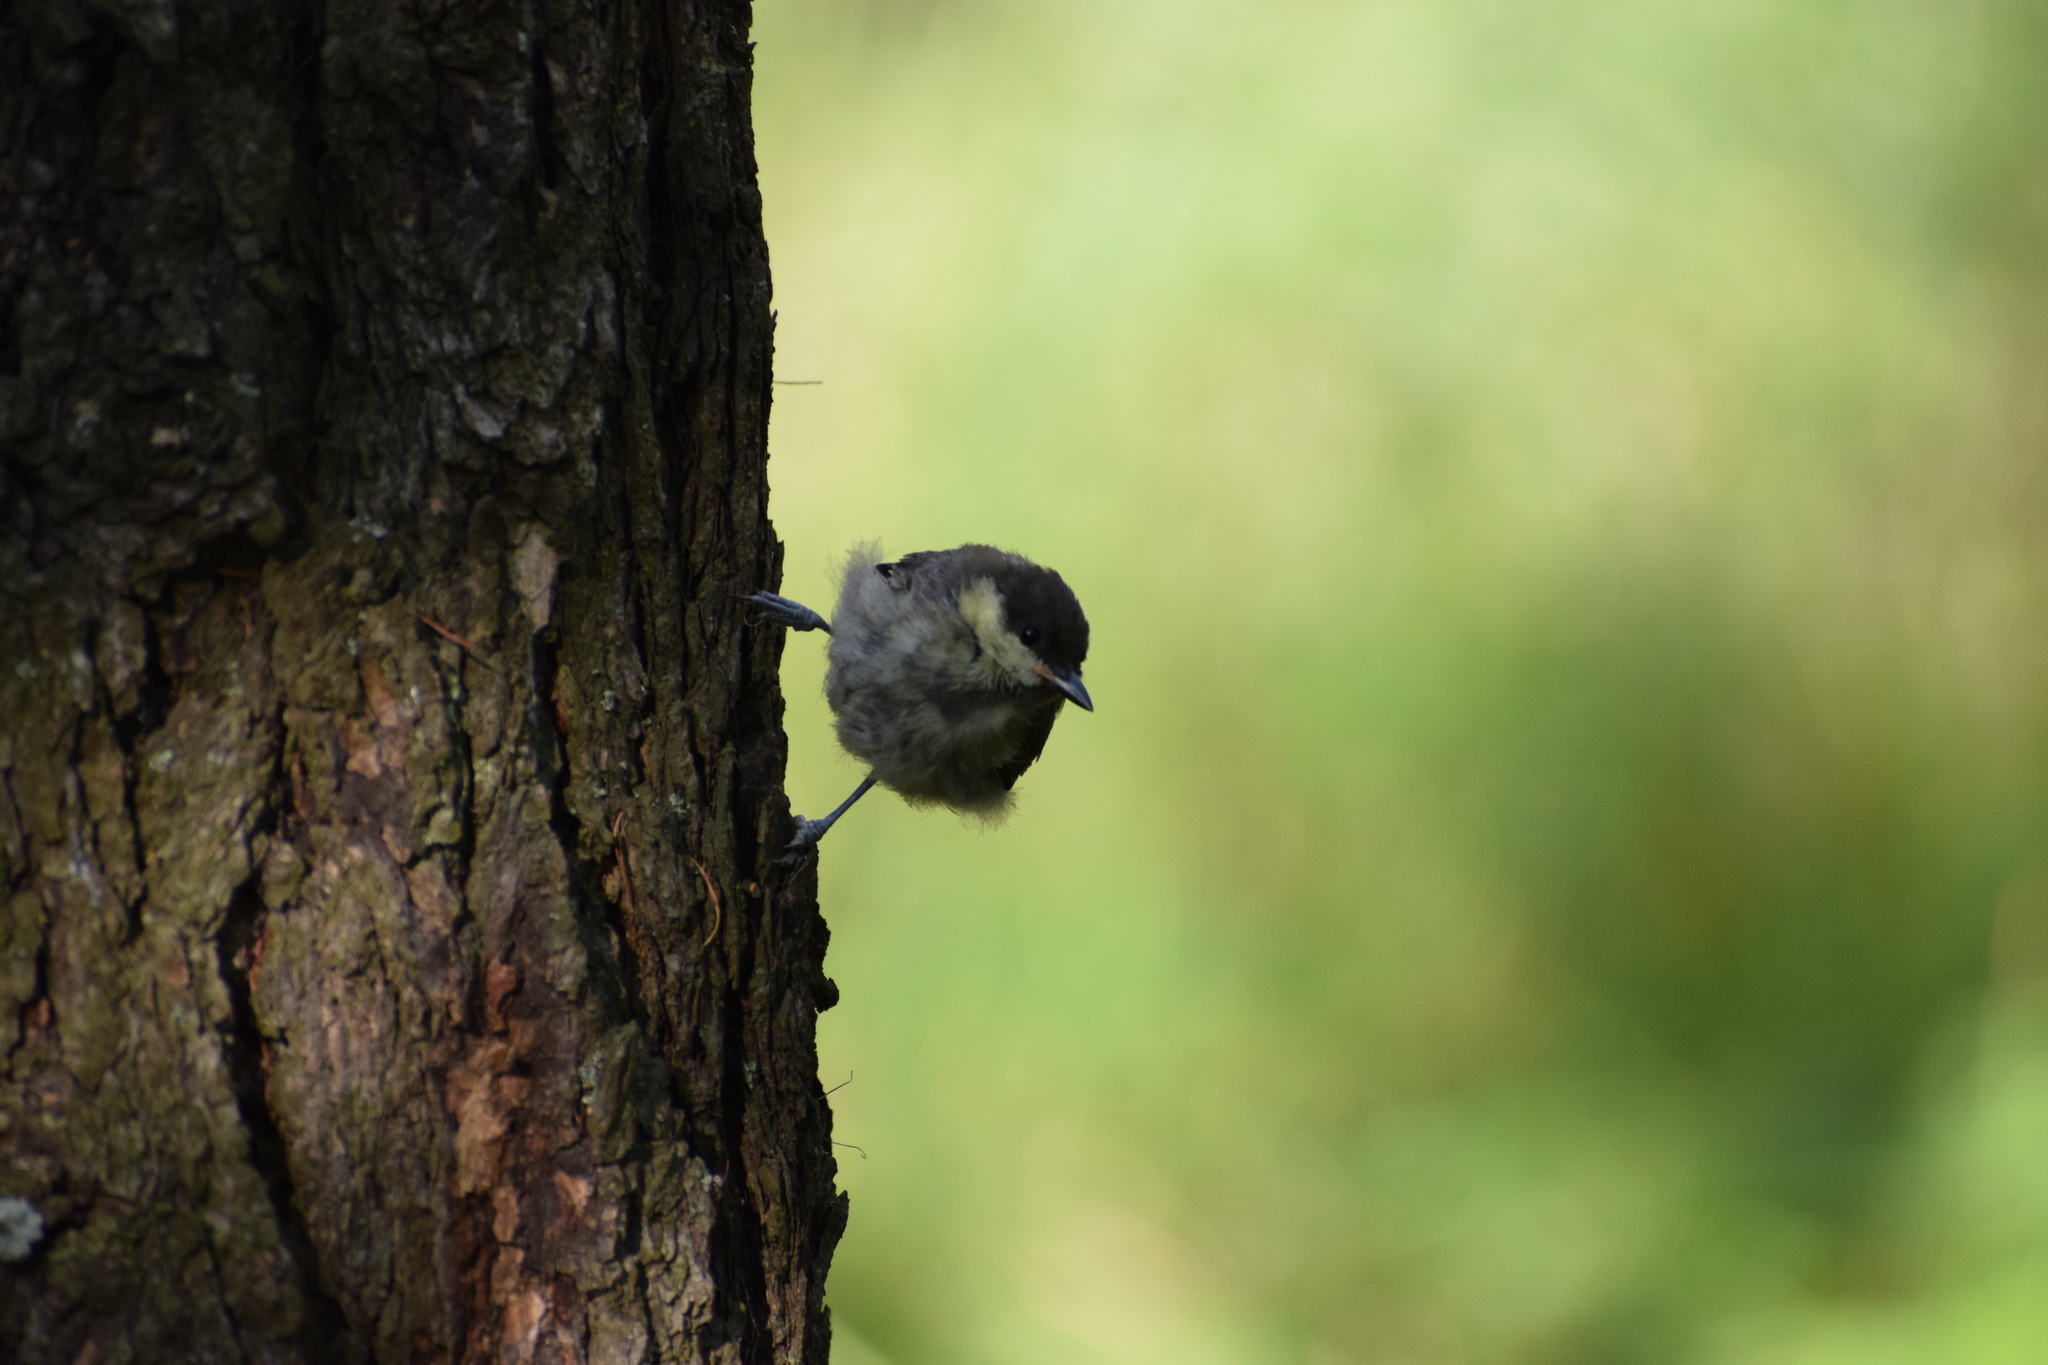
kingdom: Animalia
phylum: Chordata
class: Aves
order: Passeriformes
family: Paridae
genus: Parus
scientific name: Parus major
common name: Great tit
